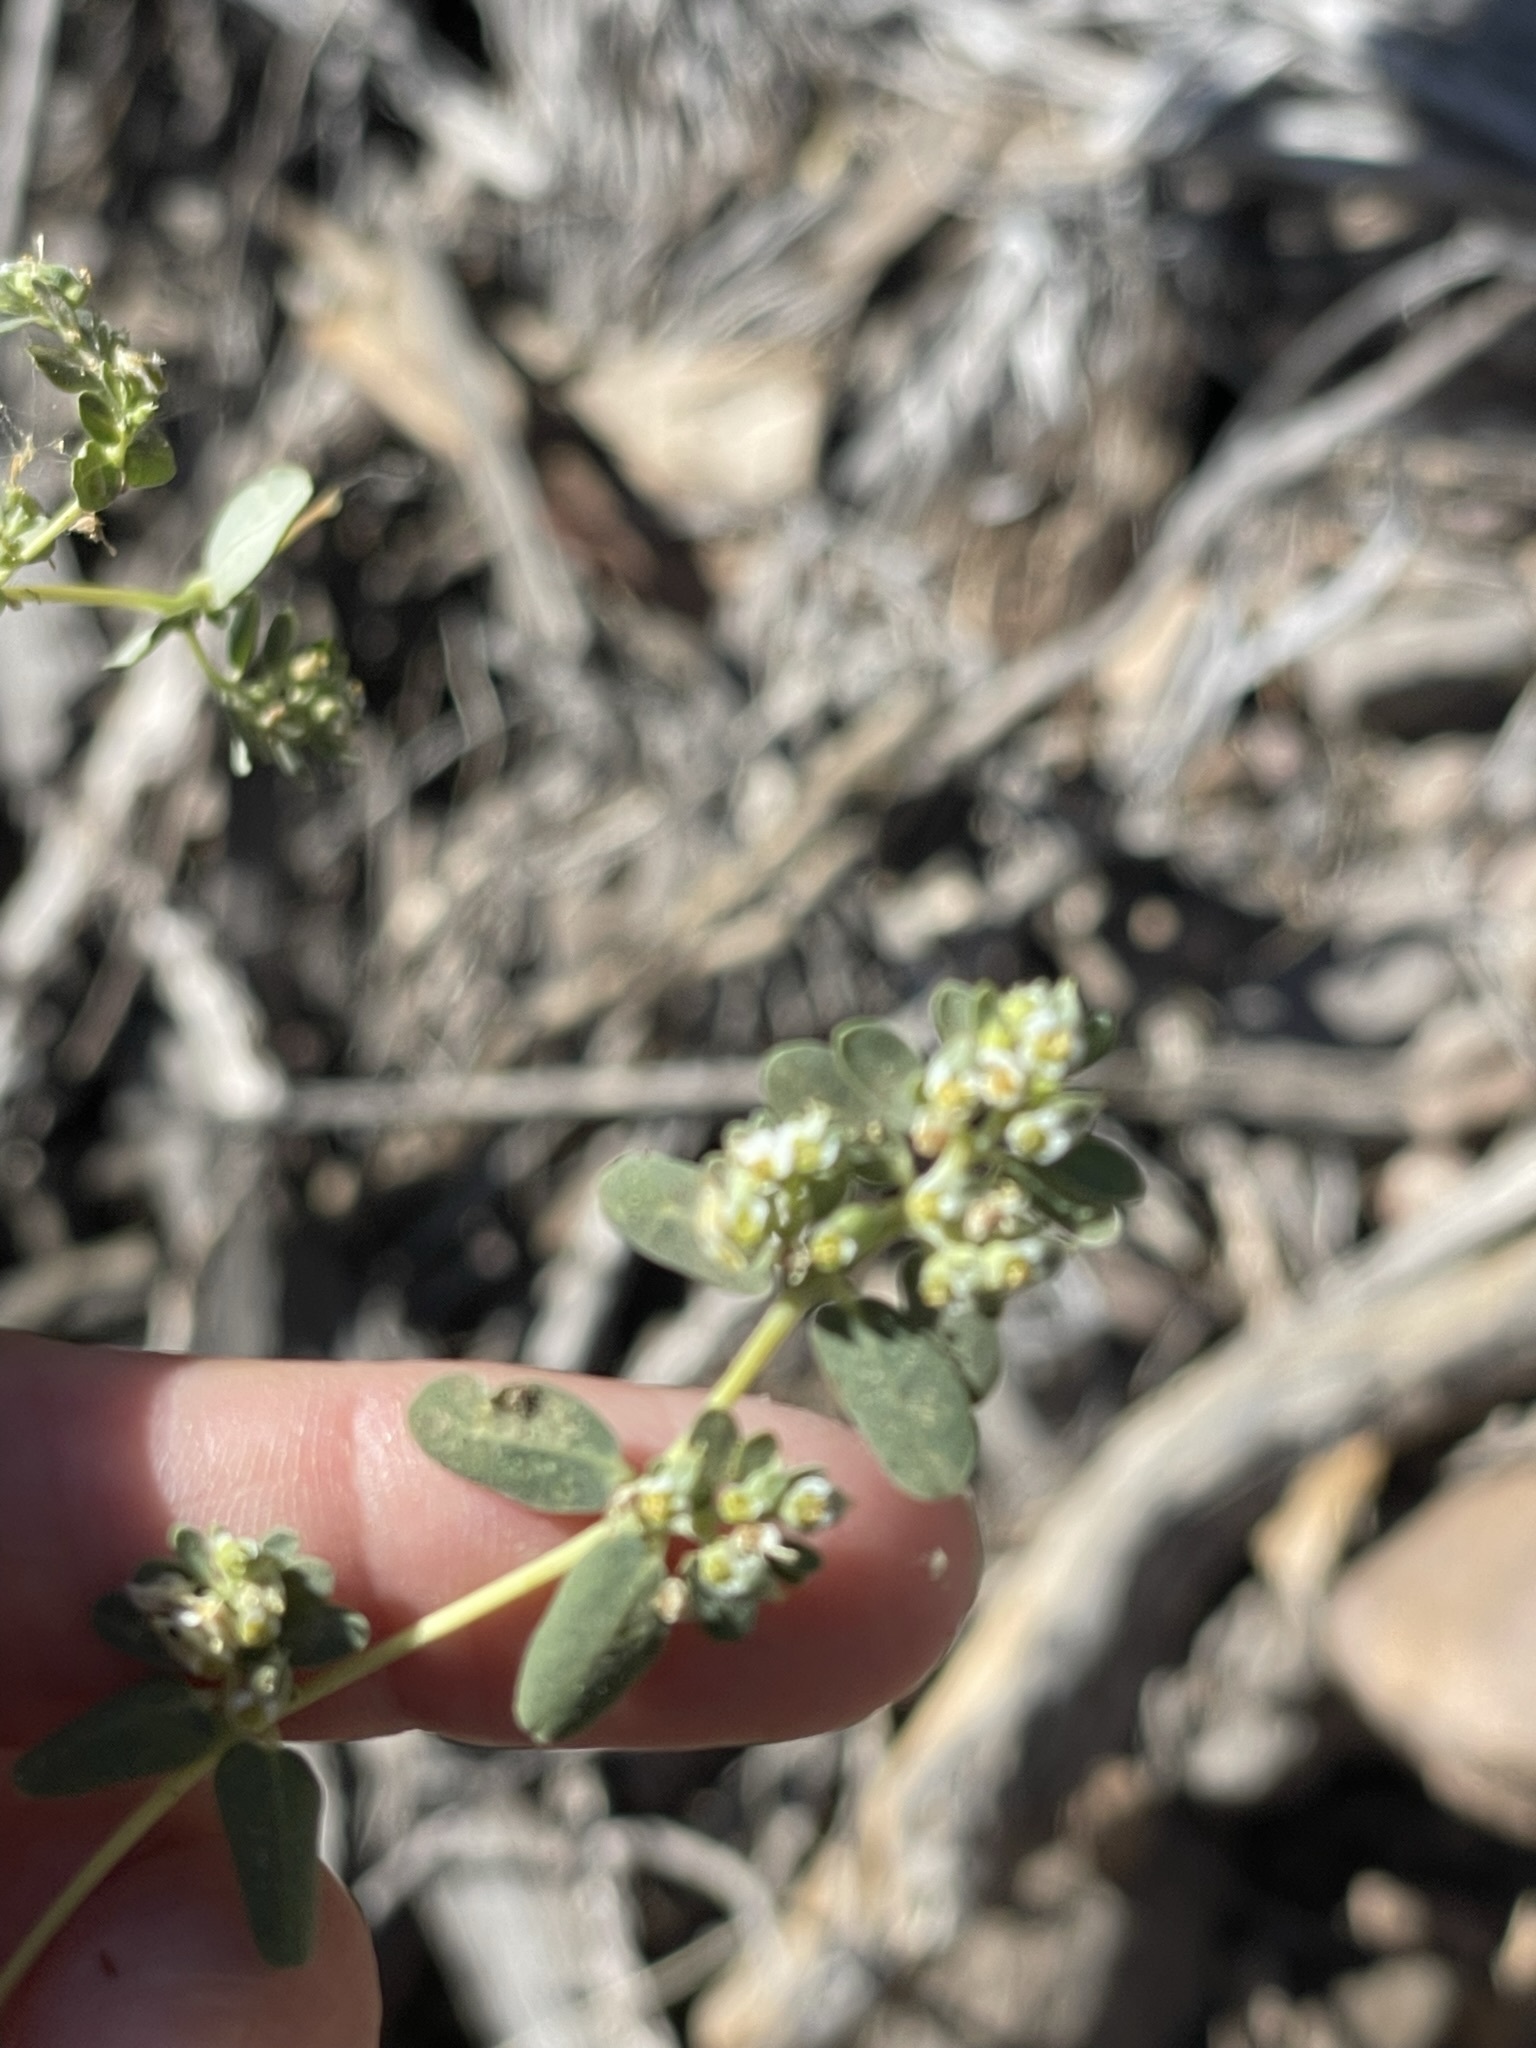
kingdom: Plantae
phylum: Tracheophyta
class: Magnoliopsida
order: Malpighiales
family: Euphorbiaceae
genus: Euphorbia
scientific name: Euphorbia pediculifera
